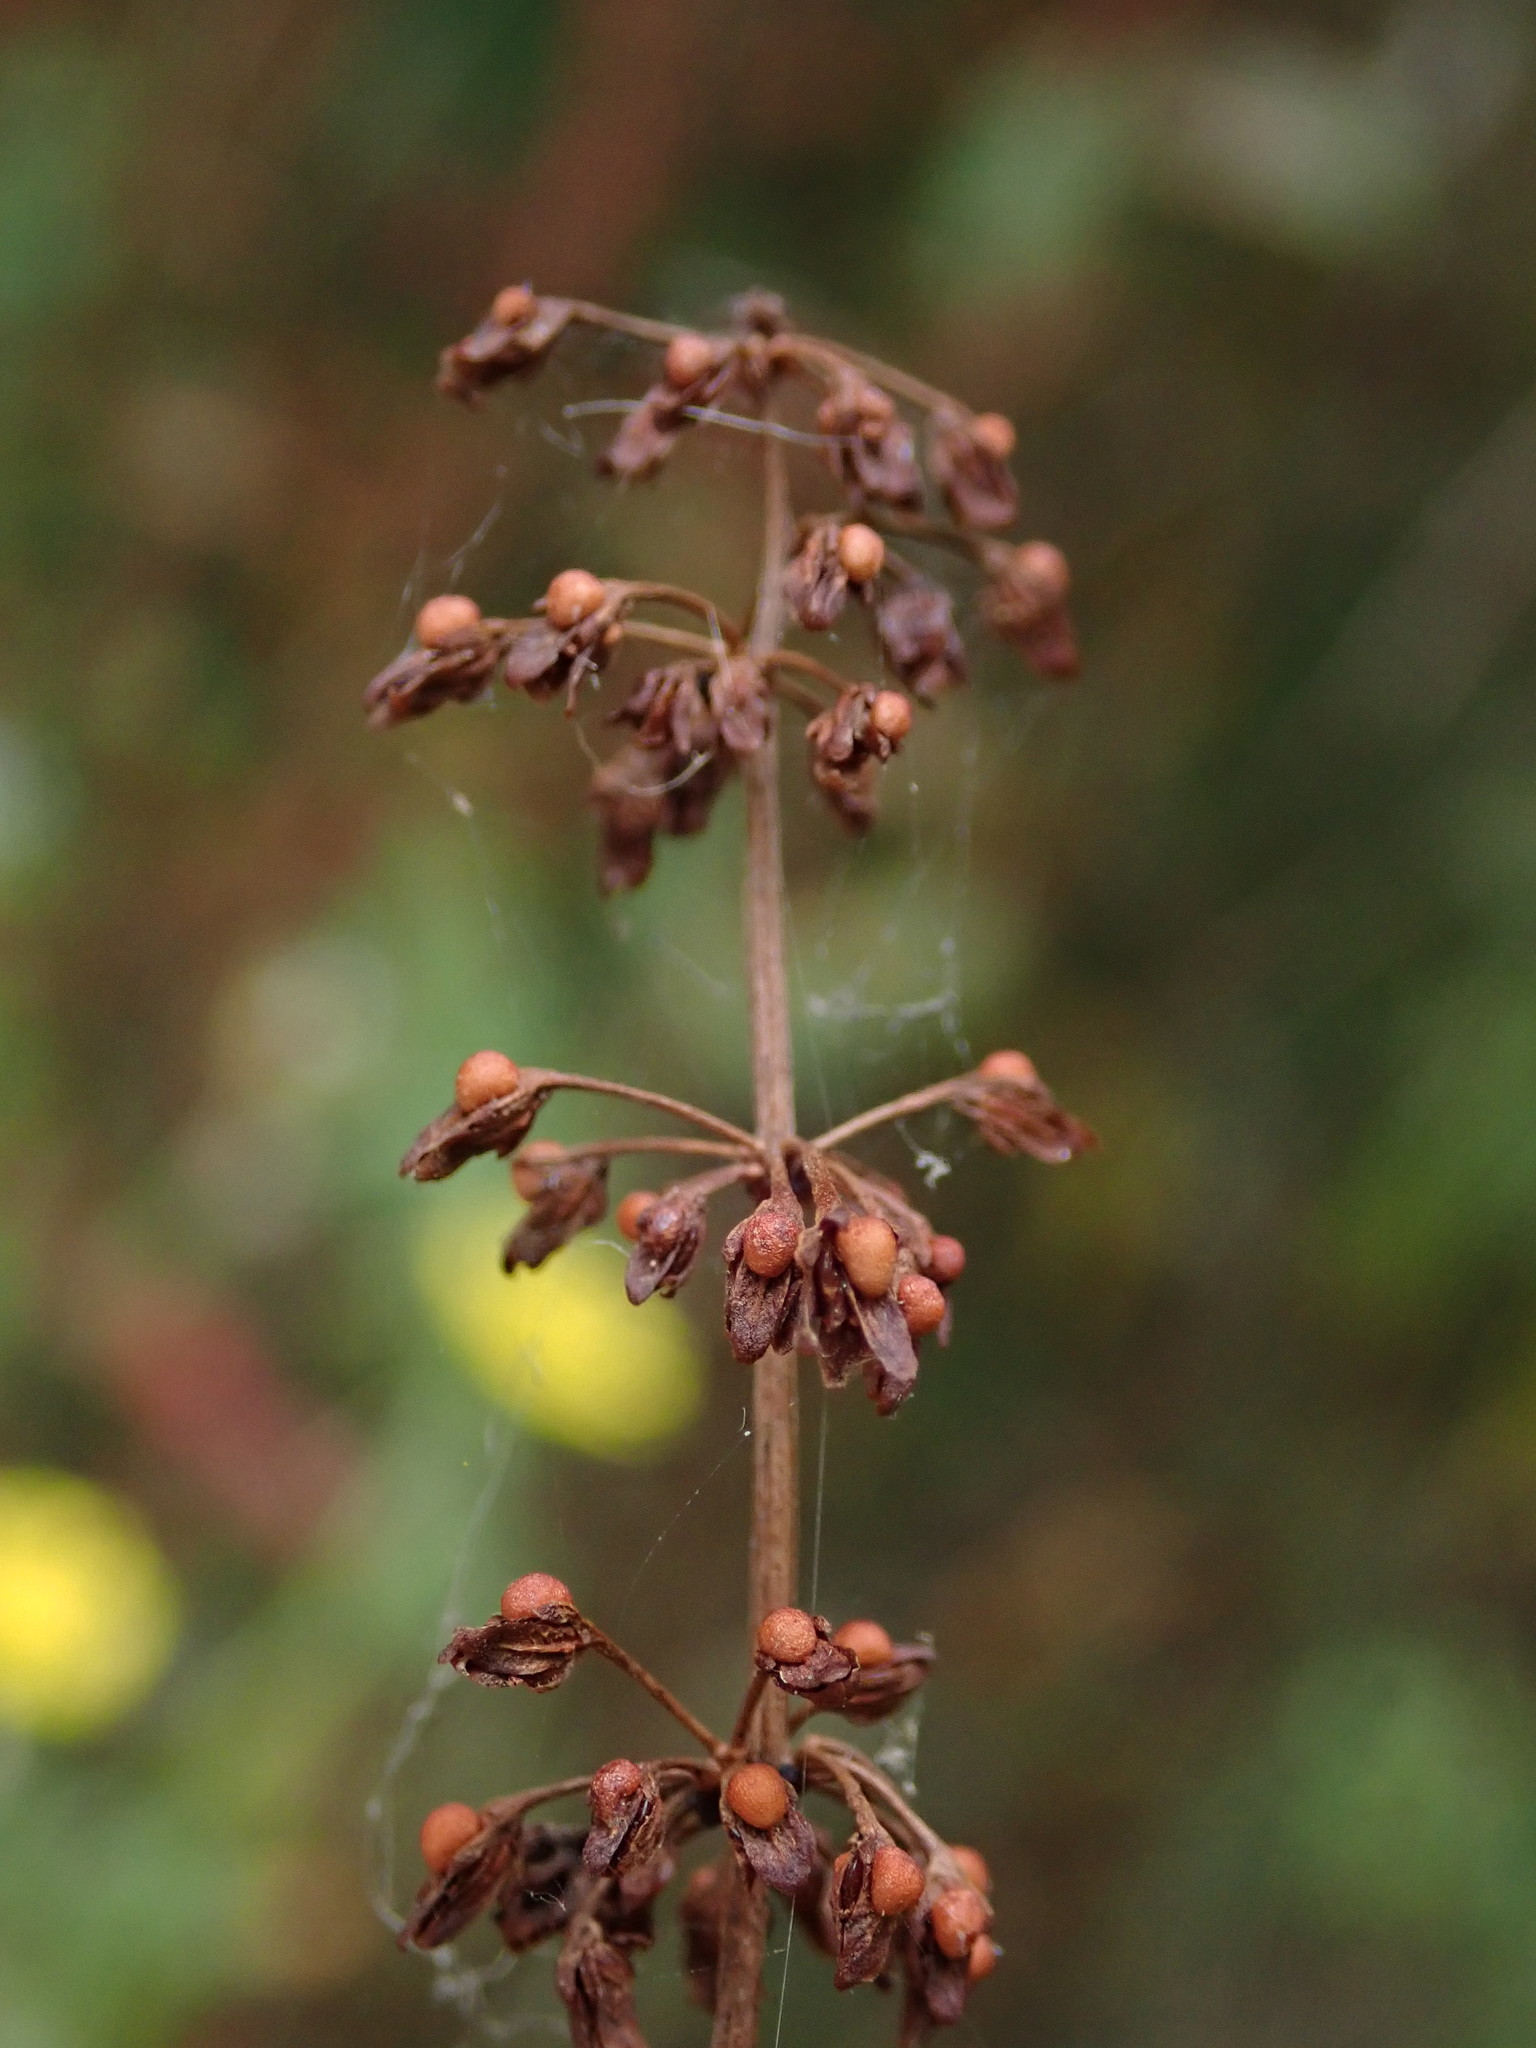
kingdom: Plantae
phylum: Tracheophyta
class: Magnoliopsida
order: Caryophyllales
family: Polygonaceae
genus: Rumex
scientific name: Rumex sanguineus
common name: Wood dock
